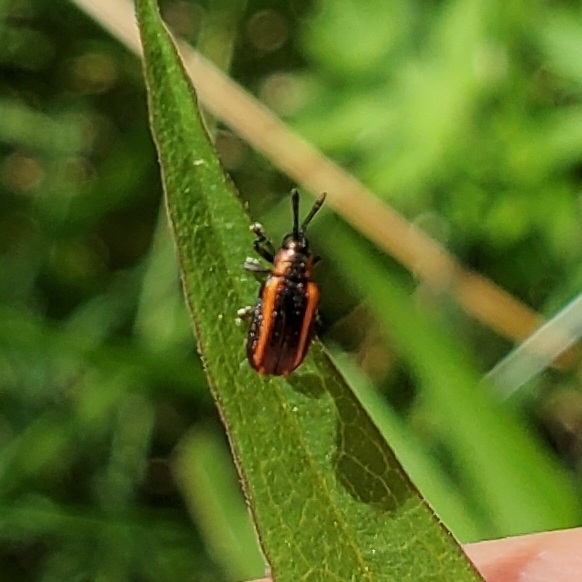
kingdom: Animalia
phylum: Arthropoda
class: Insecta
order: Coleoptera
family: Chrysomelidae
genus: Microrhopala
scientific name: Microrhopala xerene
